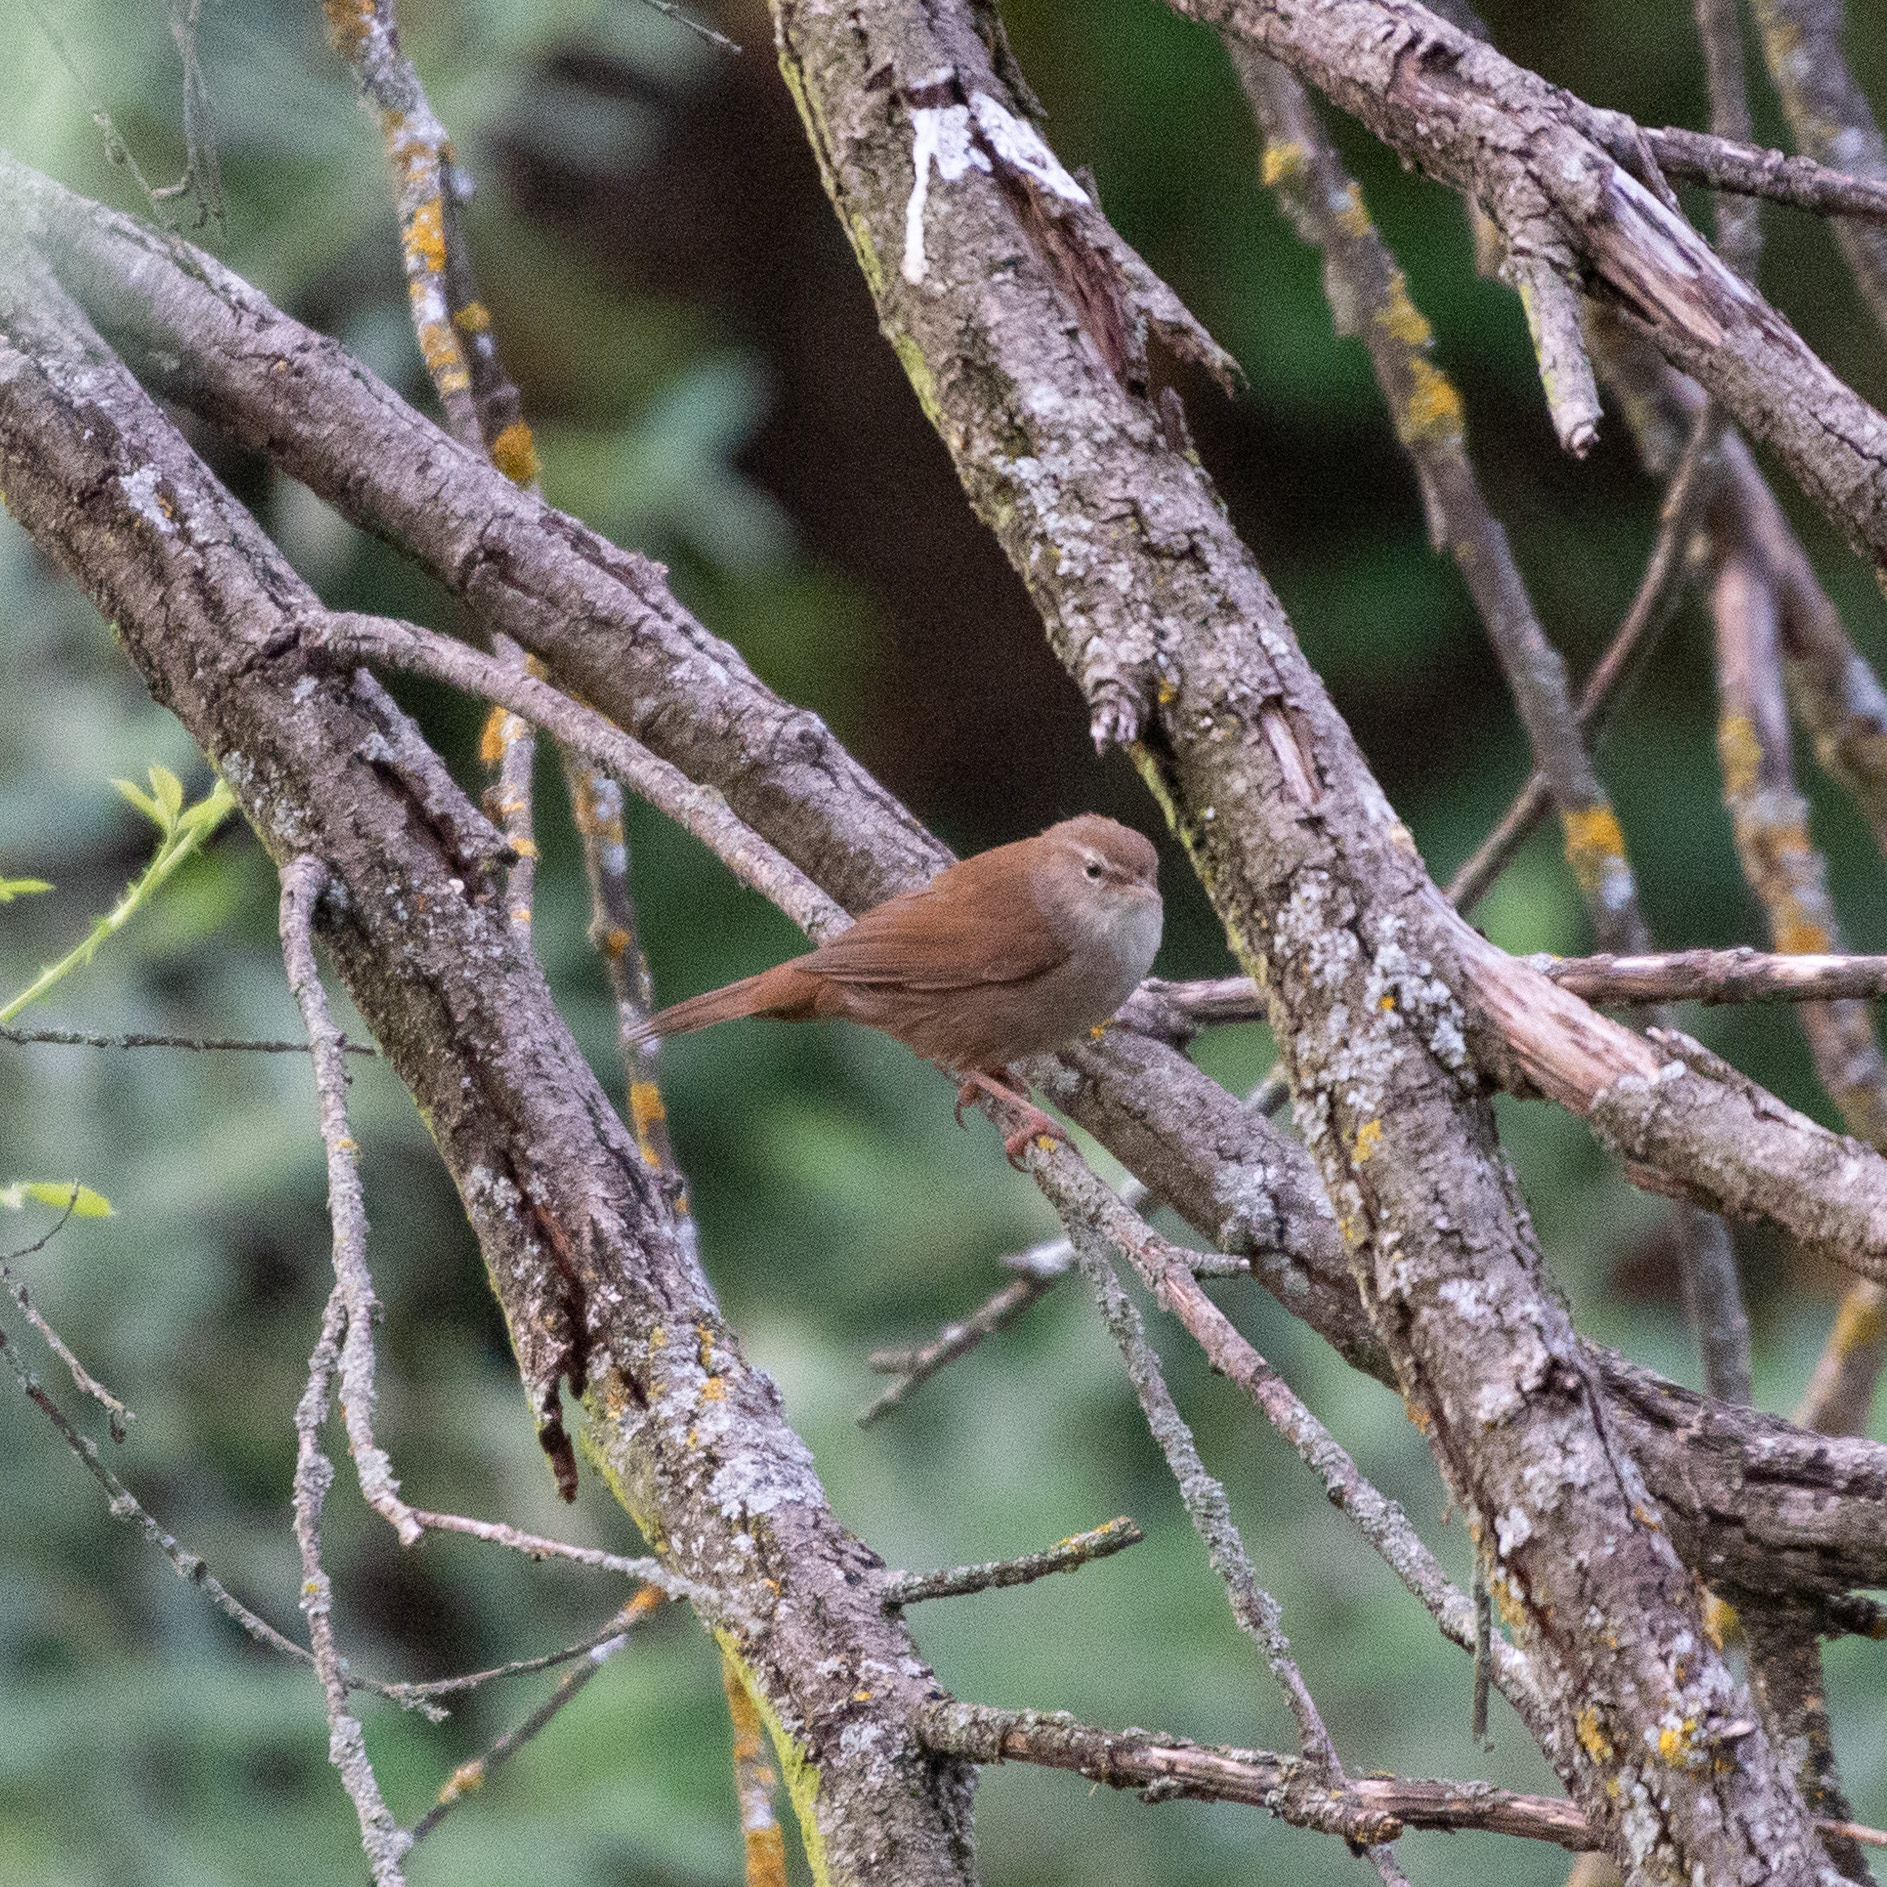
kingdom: Animalia
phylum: Chordata
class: Aves
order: Passeriformes
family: Cettiidae
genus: Cettia
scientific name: Cettia cetti
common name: Cetti's warbler
